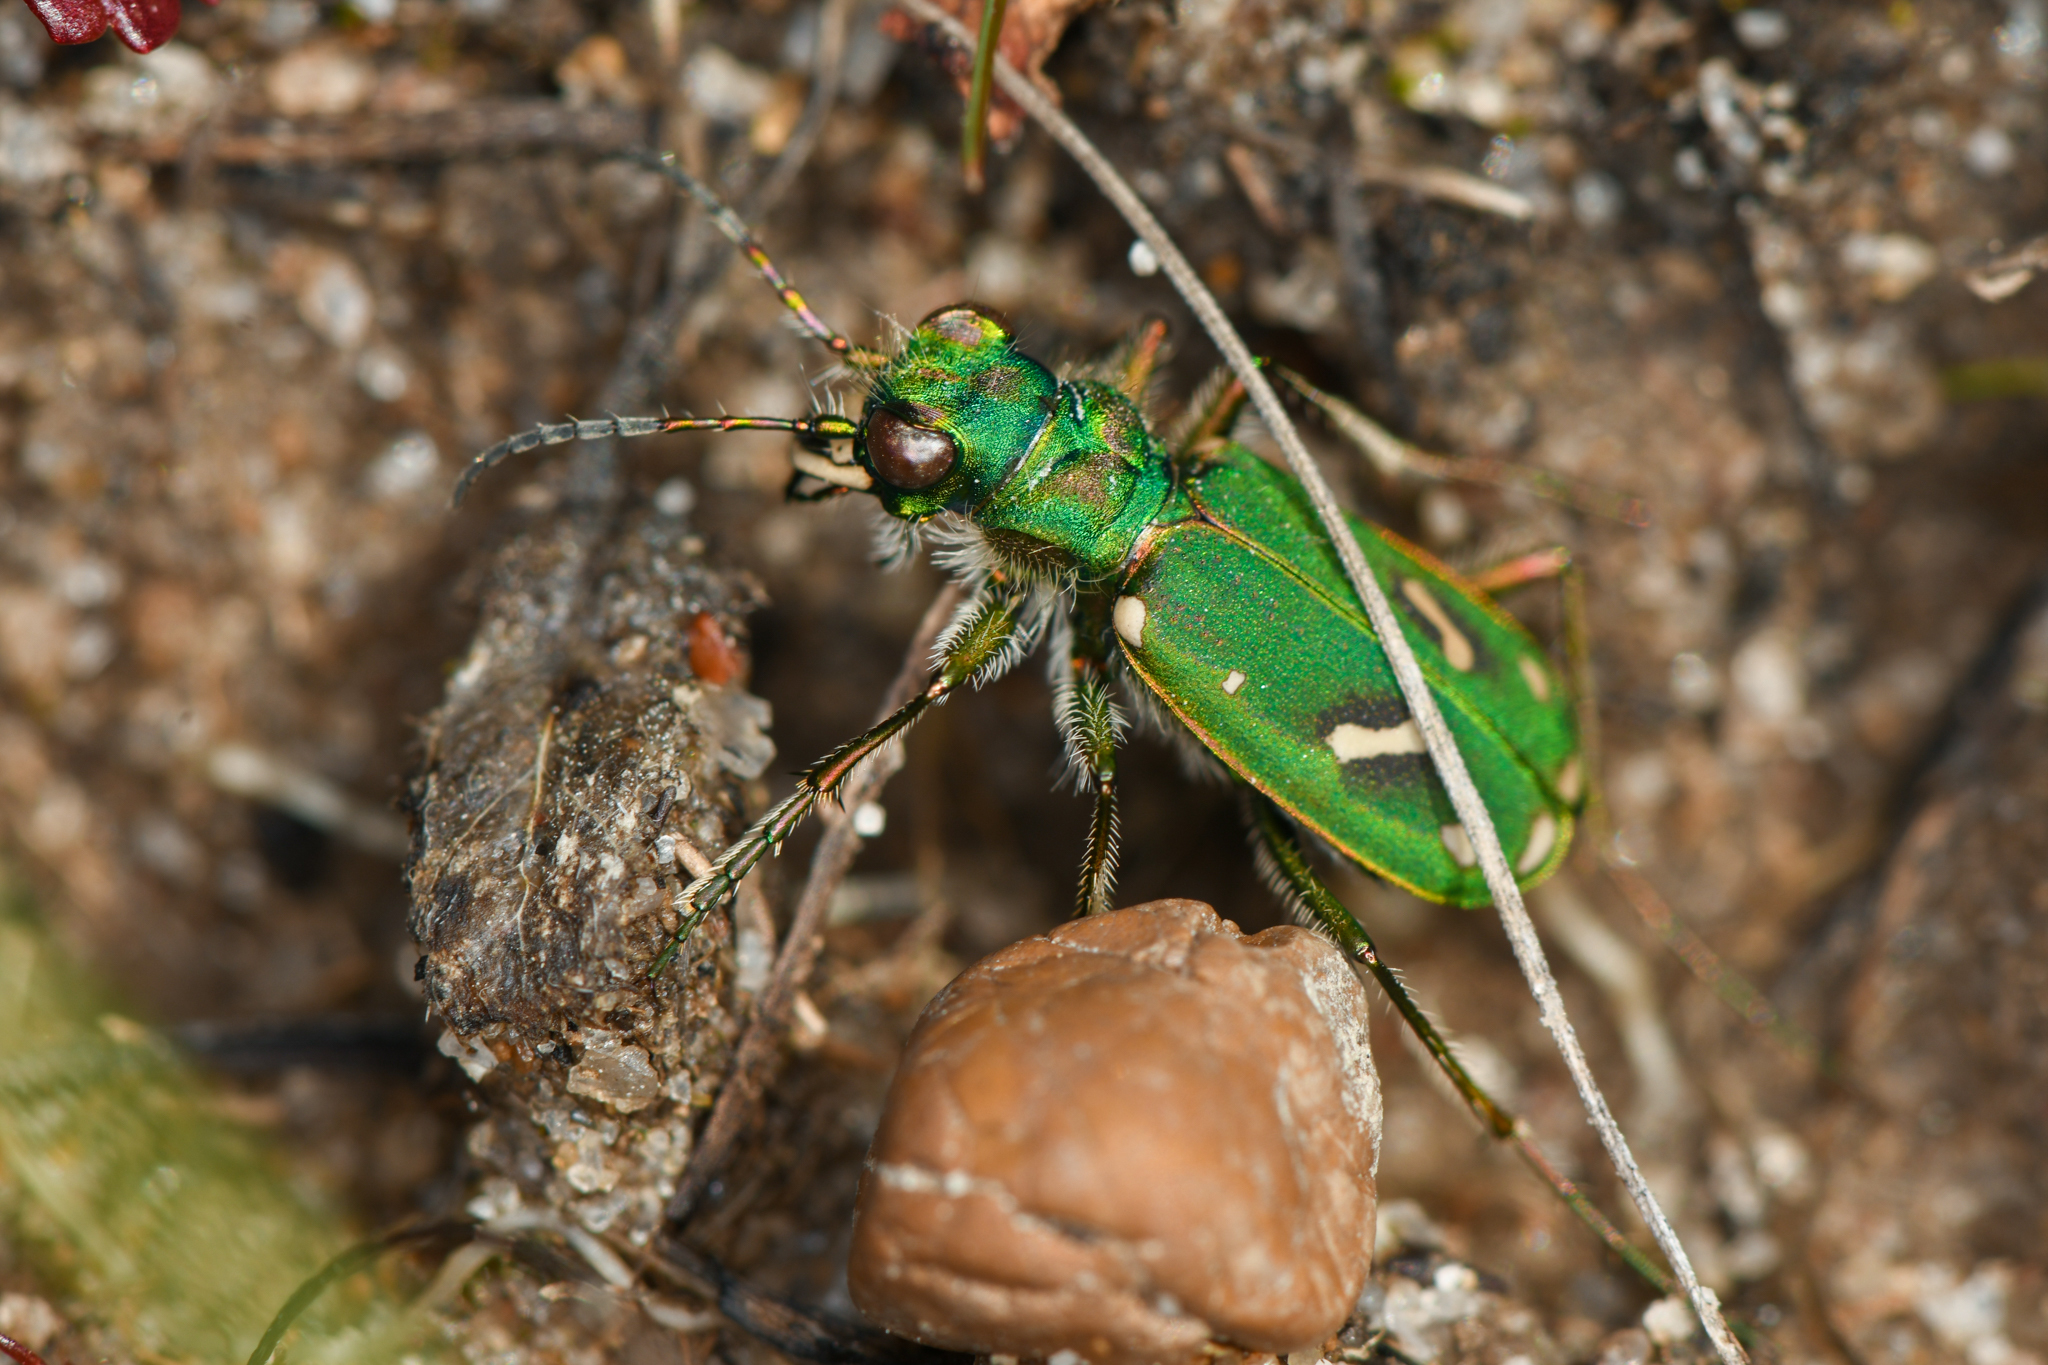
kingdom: Animalia
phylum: Arthropoda
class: Insecta
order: Coleoptera
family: Carabidae
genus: Cicindela
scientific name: Cicindela ohlone
